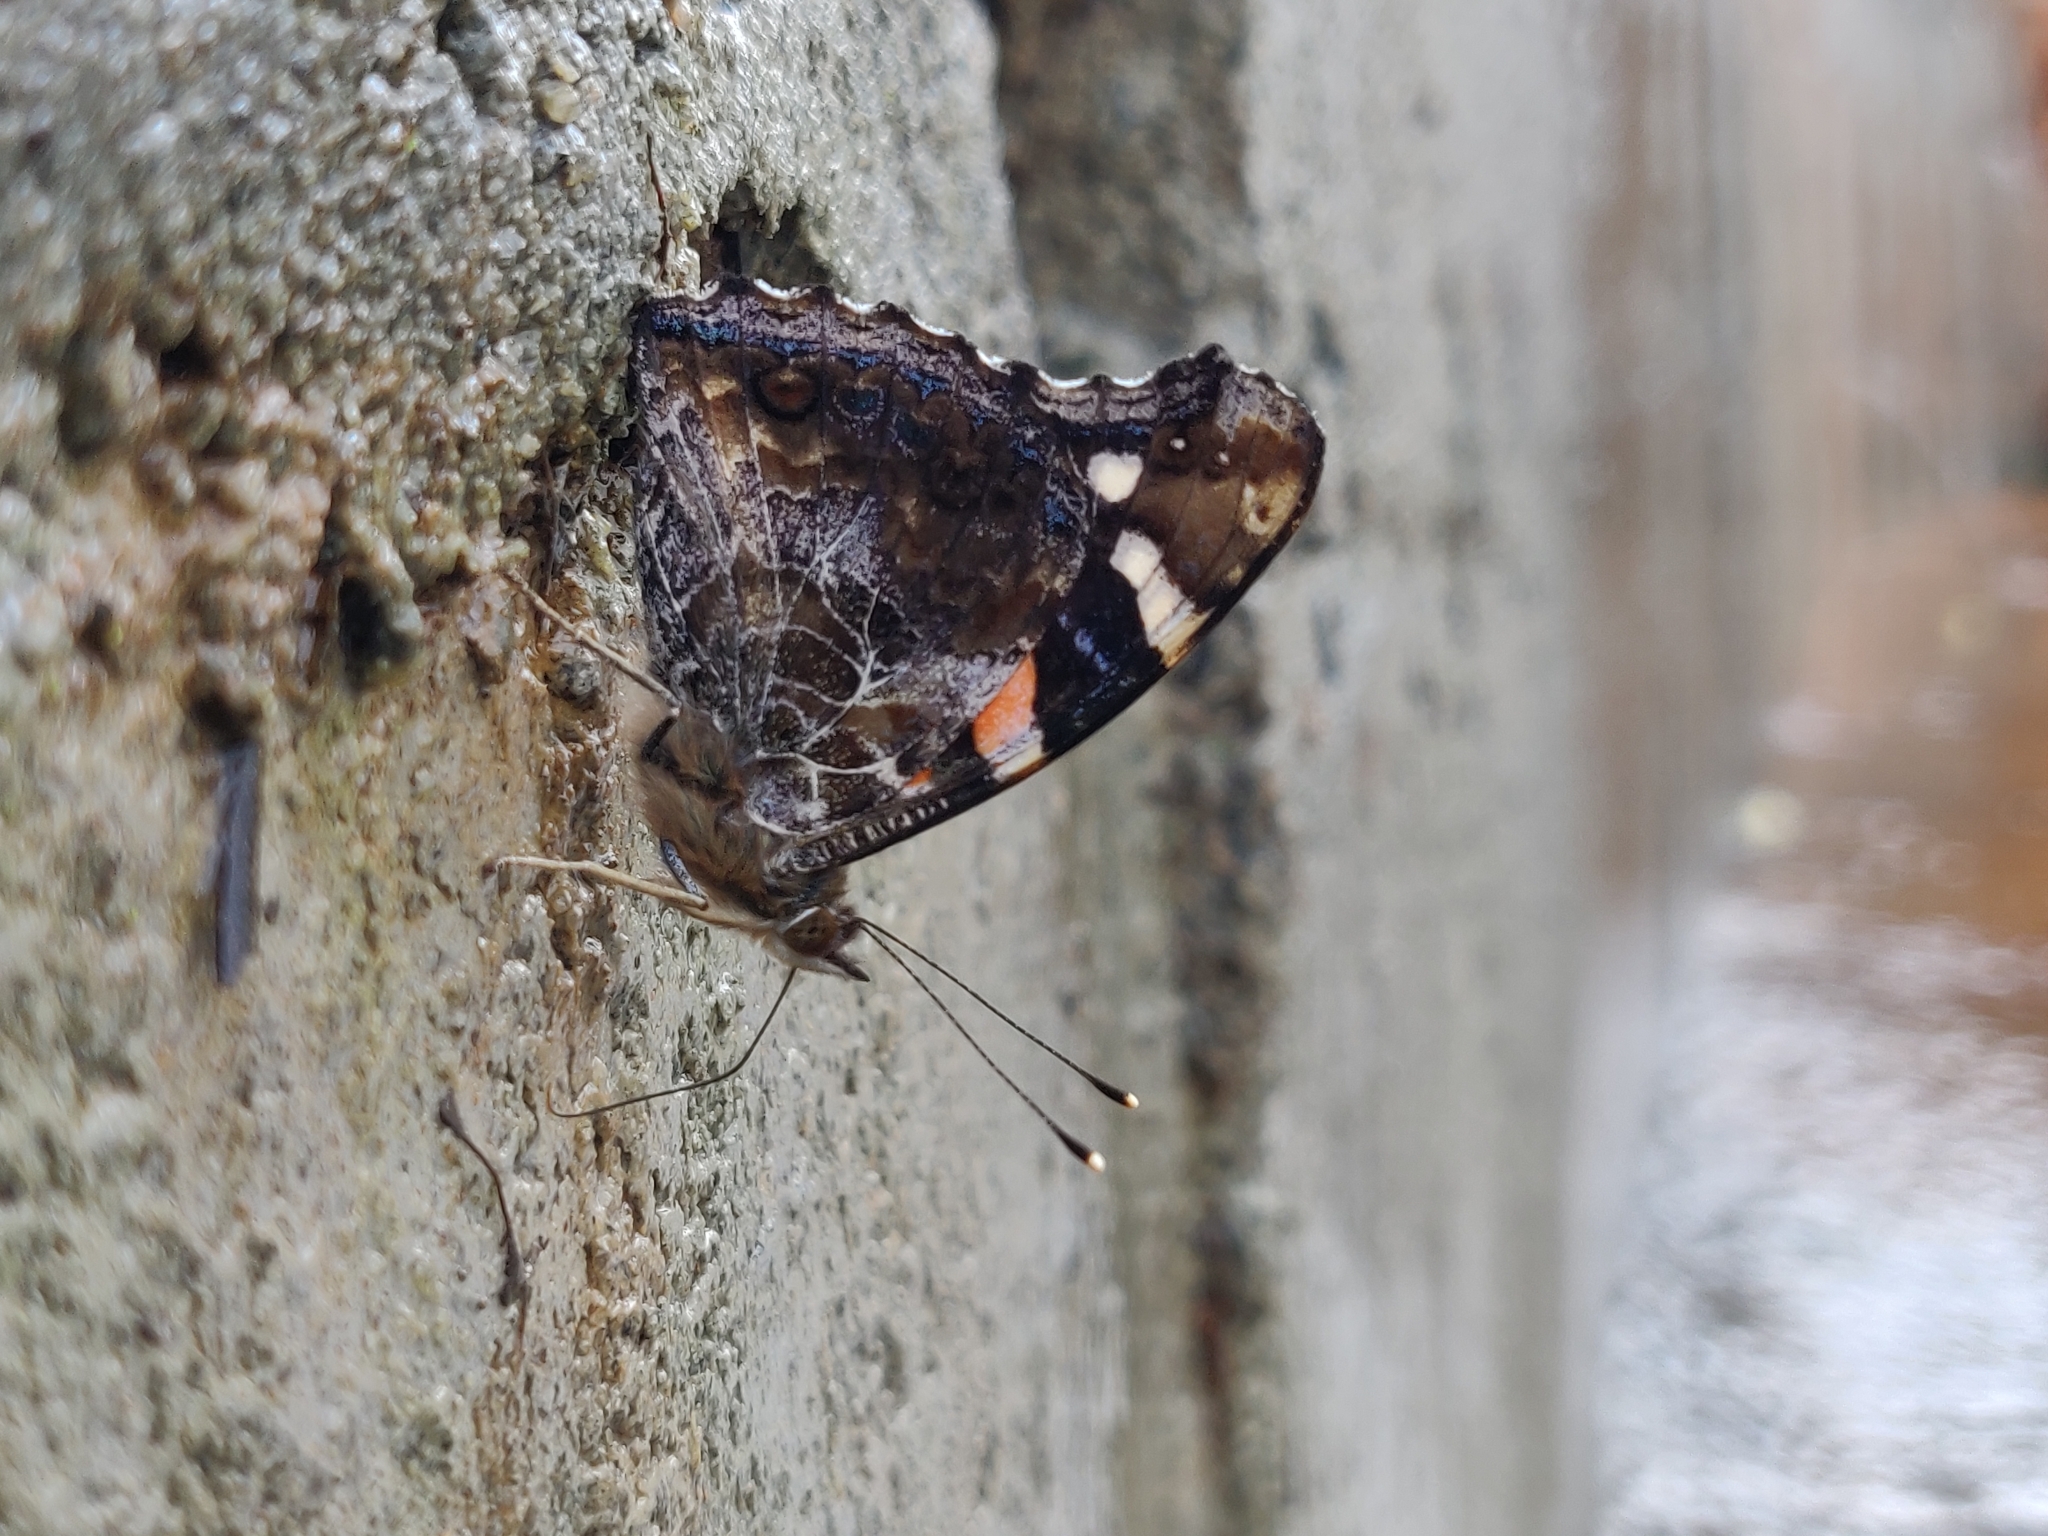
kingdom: Animalia
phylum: Arthropoda
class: Insecta
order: Lepidoptera
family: Nymphalidae
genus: Vanessa
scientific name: Vanessa indica
